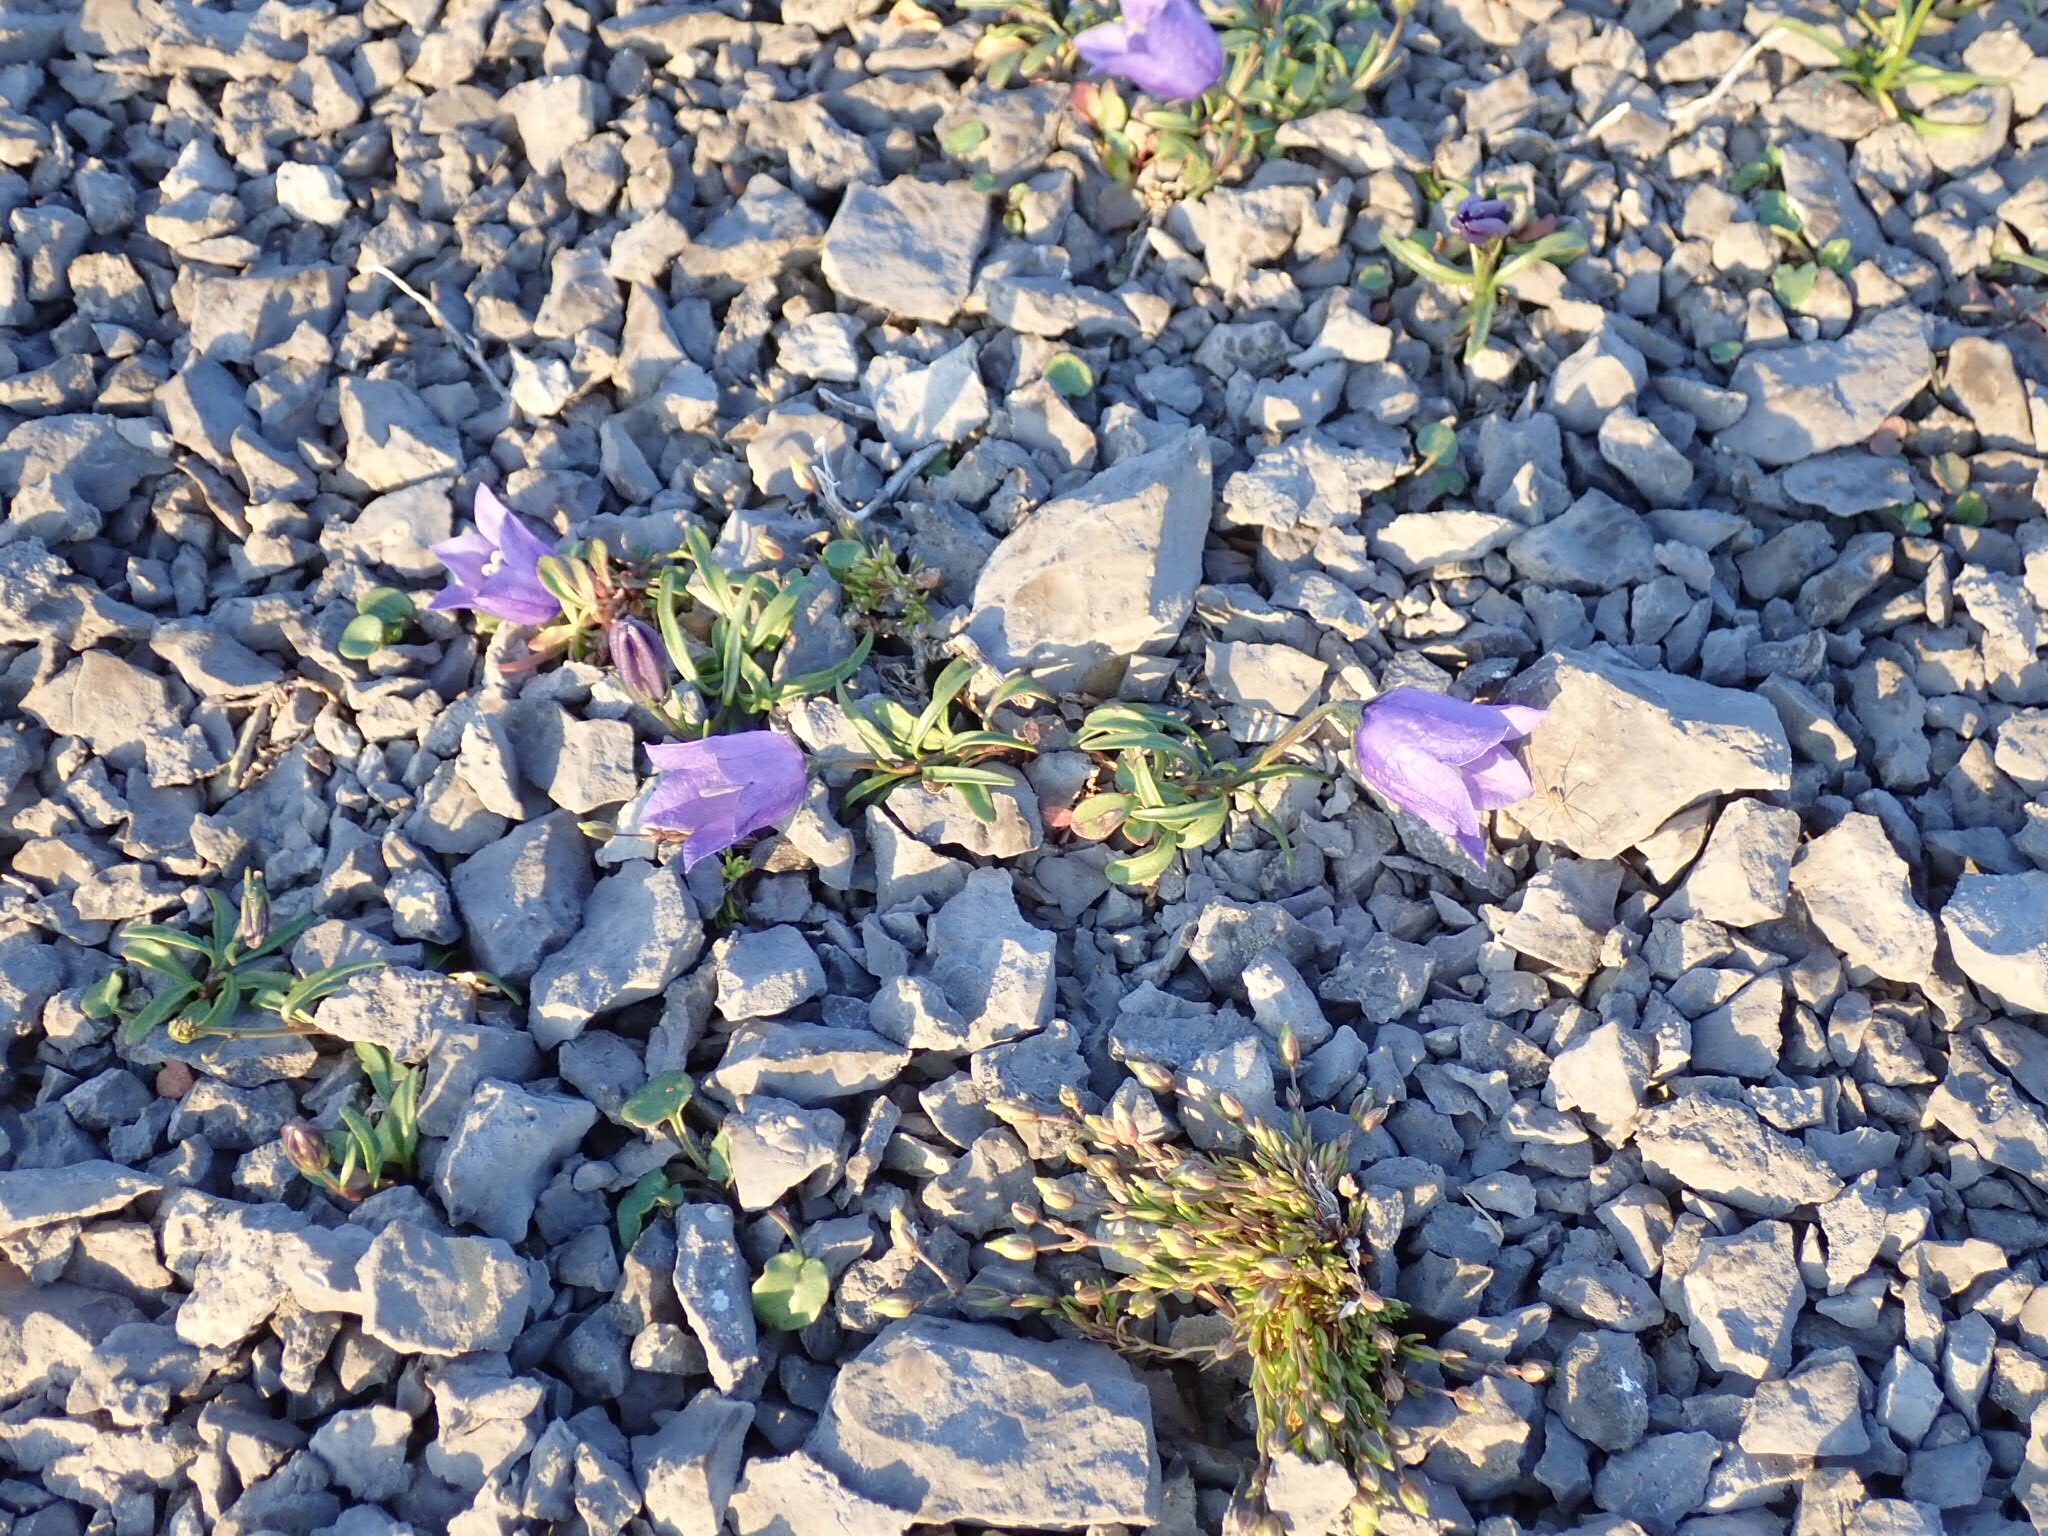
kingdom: Plantae
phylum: Tracheophyta
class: Magnoliopsida
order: Asterales
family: Campanulaceae
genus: Campanula
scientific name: Campanula giesekiana
